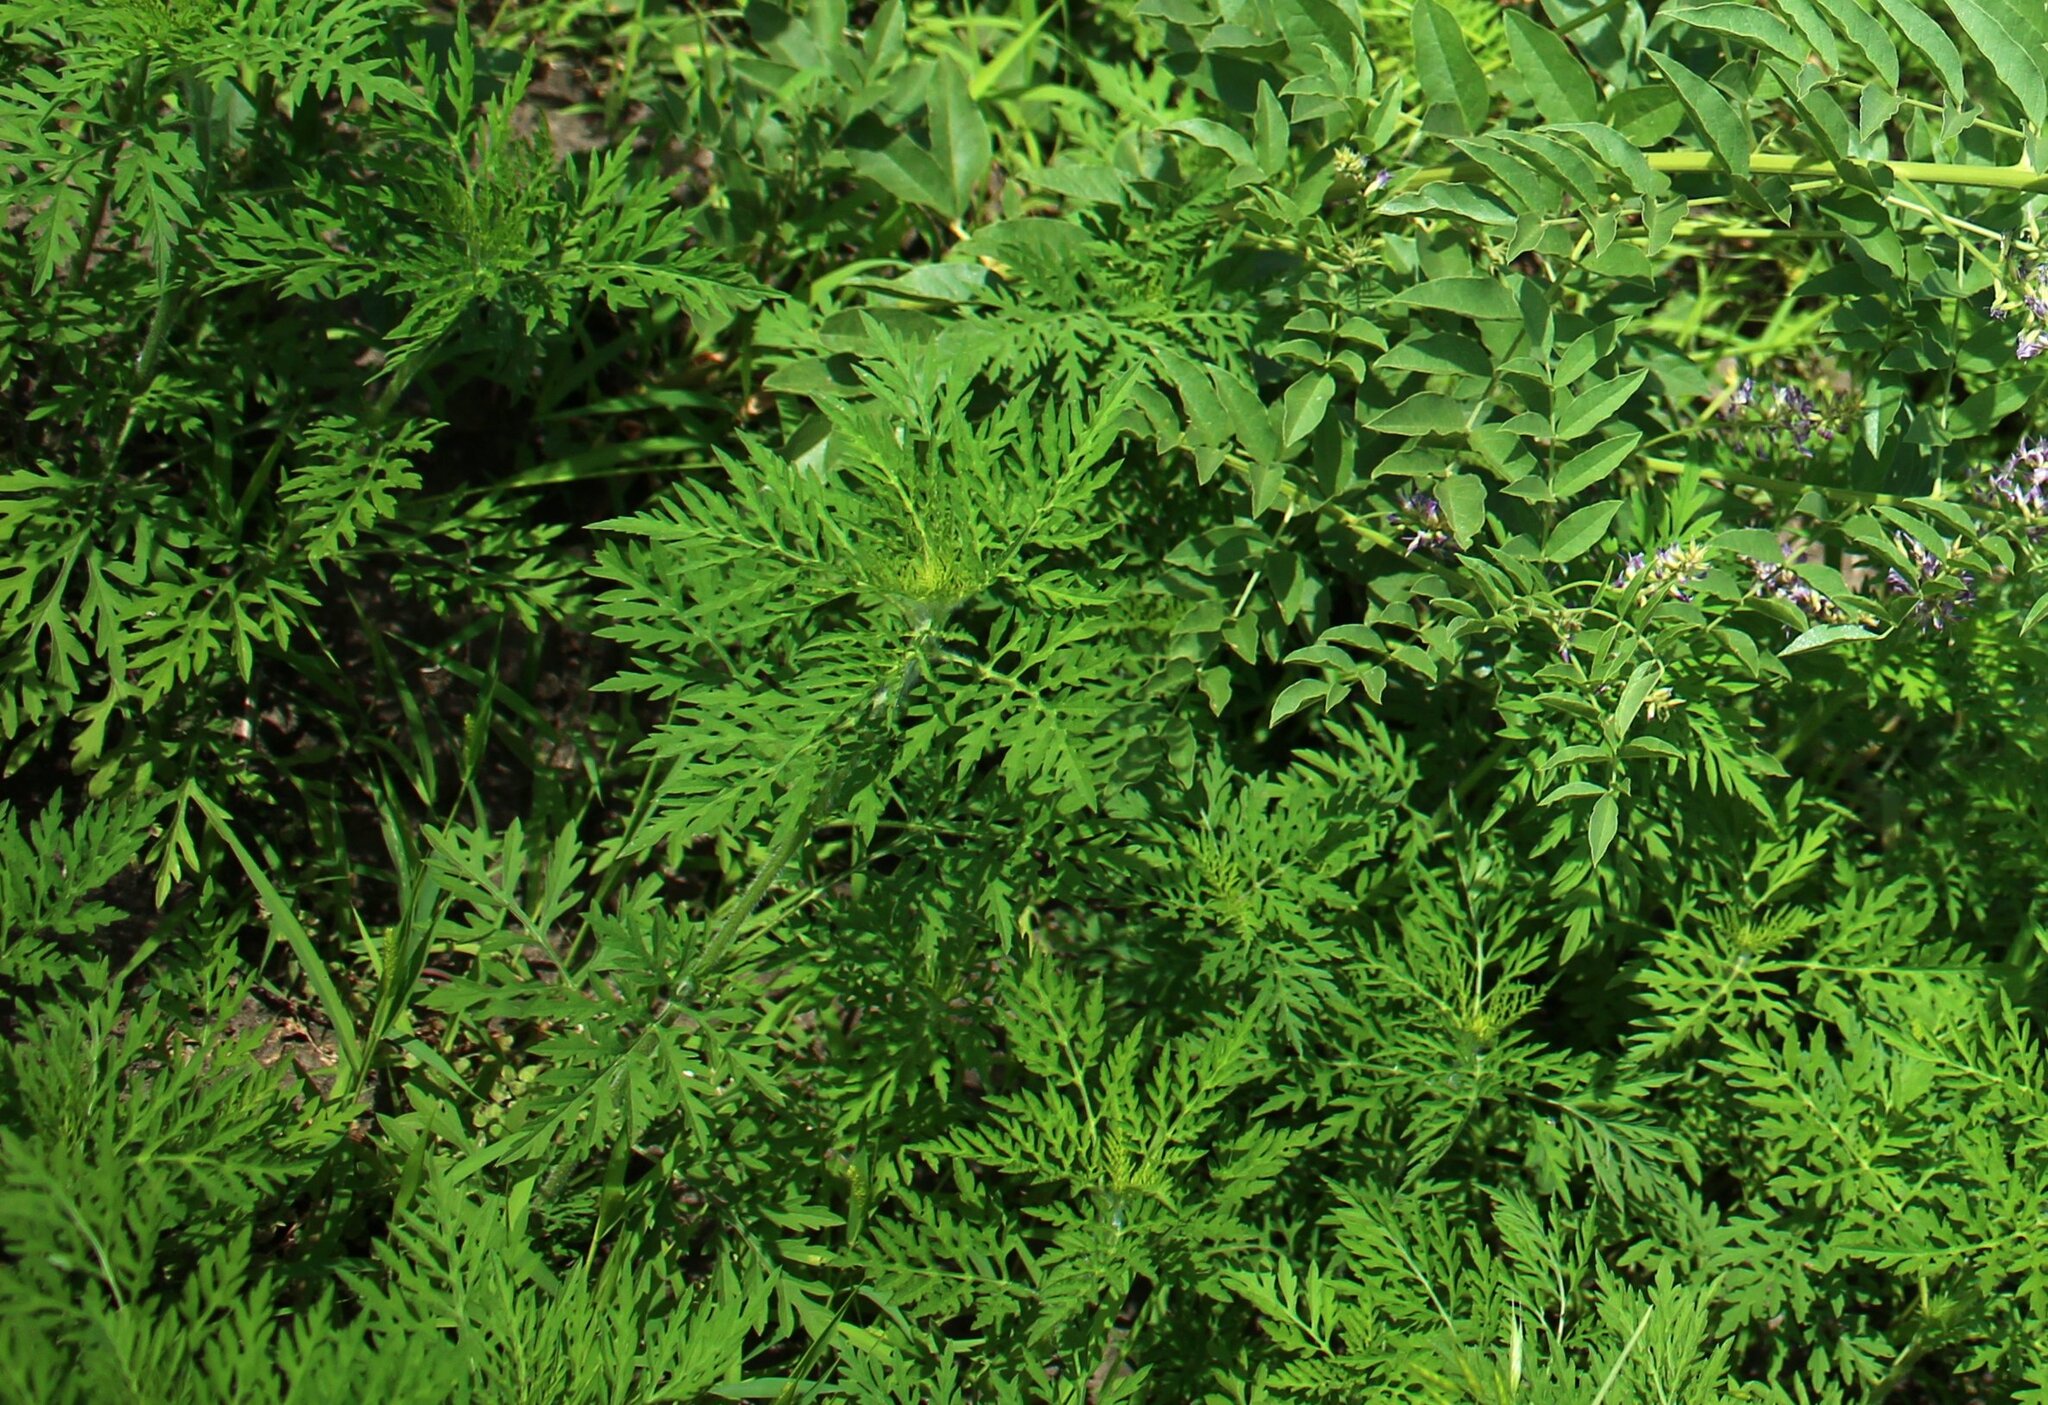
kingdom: Plantae
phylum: Tracheophyta
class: Magnoliopsida
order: Asterales
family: Asteraceae
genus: Ambrosia
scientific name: Ambrosia artemisiifolia
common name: Annual ragweed
